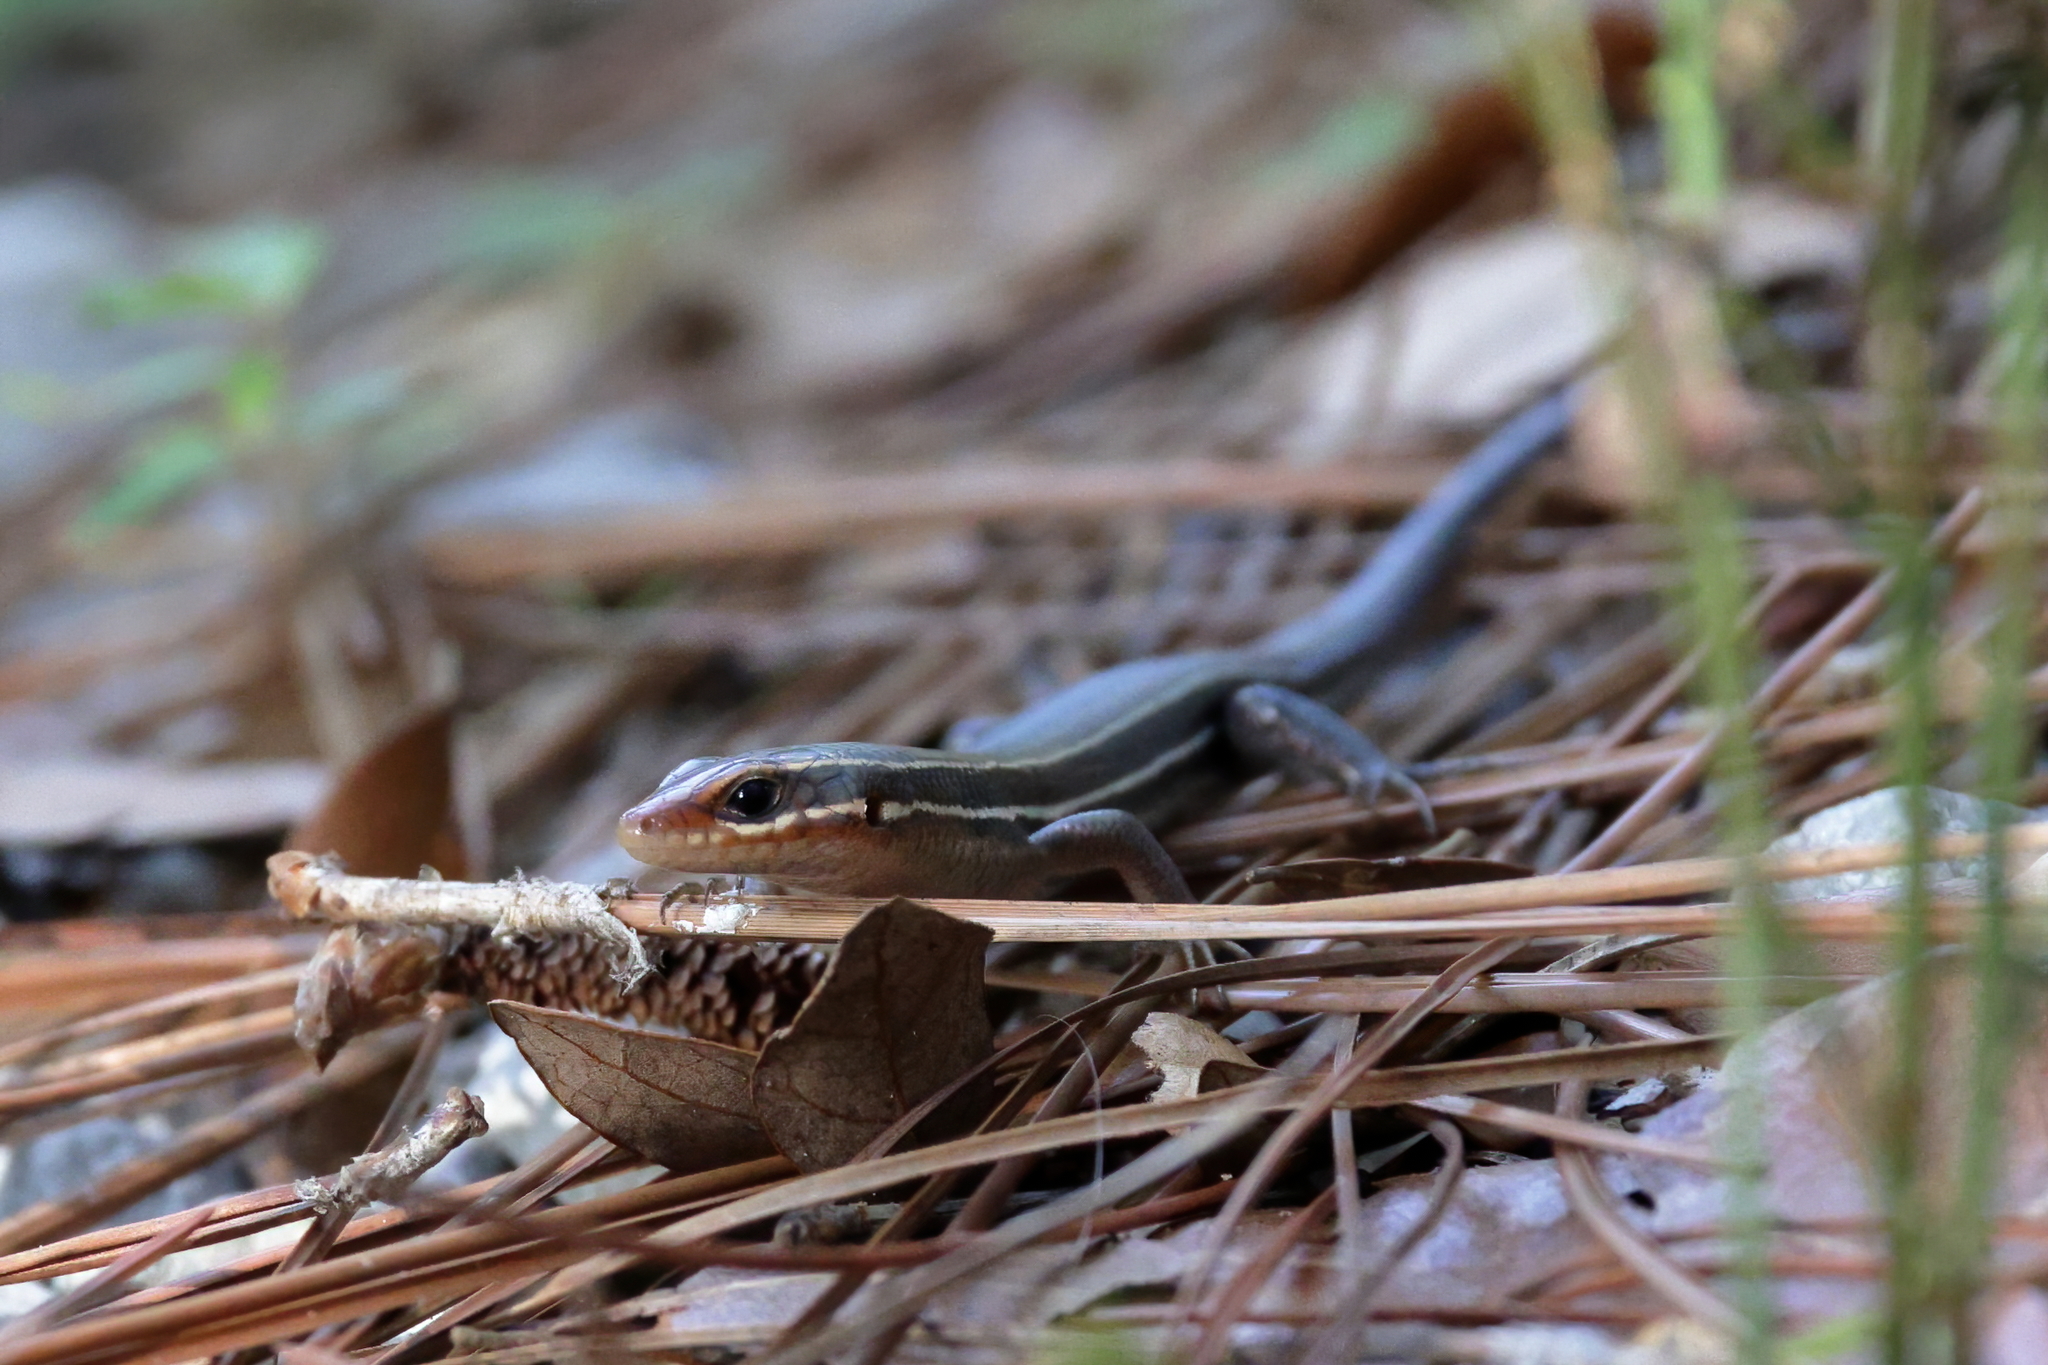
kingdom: Animalia
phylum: Chordata
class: Squamata
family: Scincidae
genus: Plestiodon
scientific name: Plestiodon inexpectatus
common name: Southeastern five-lined skink
